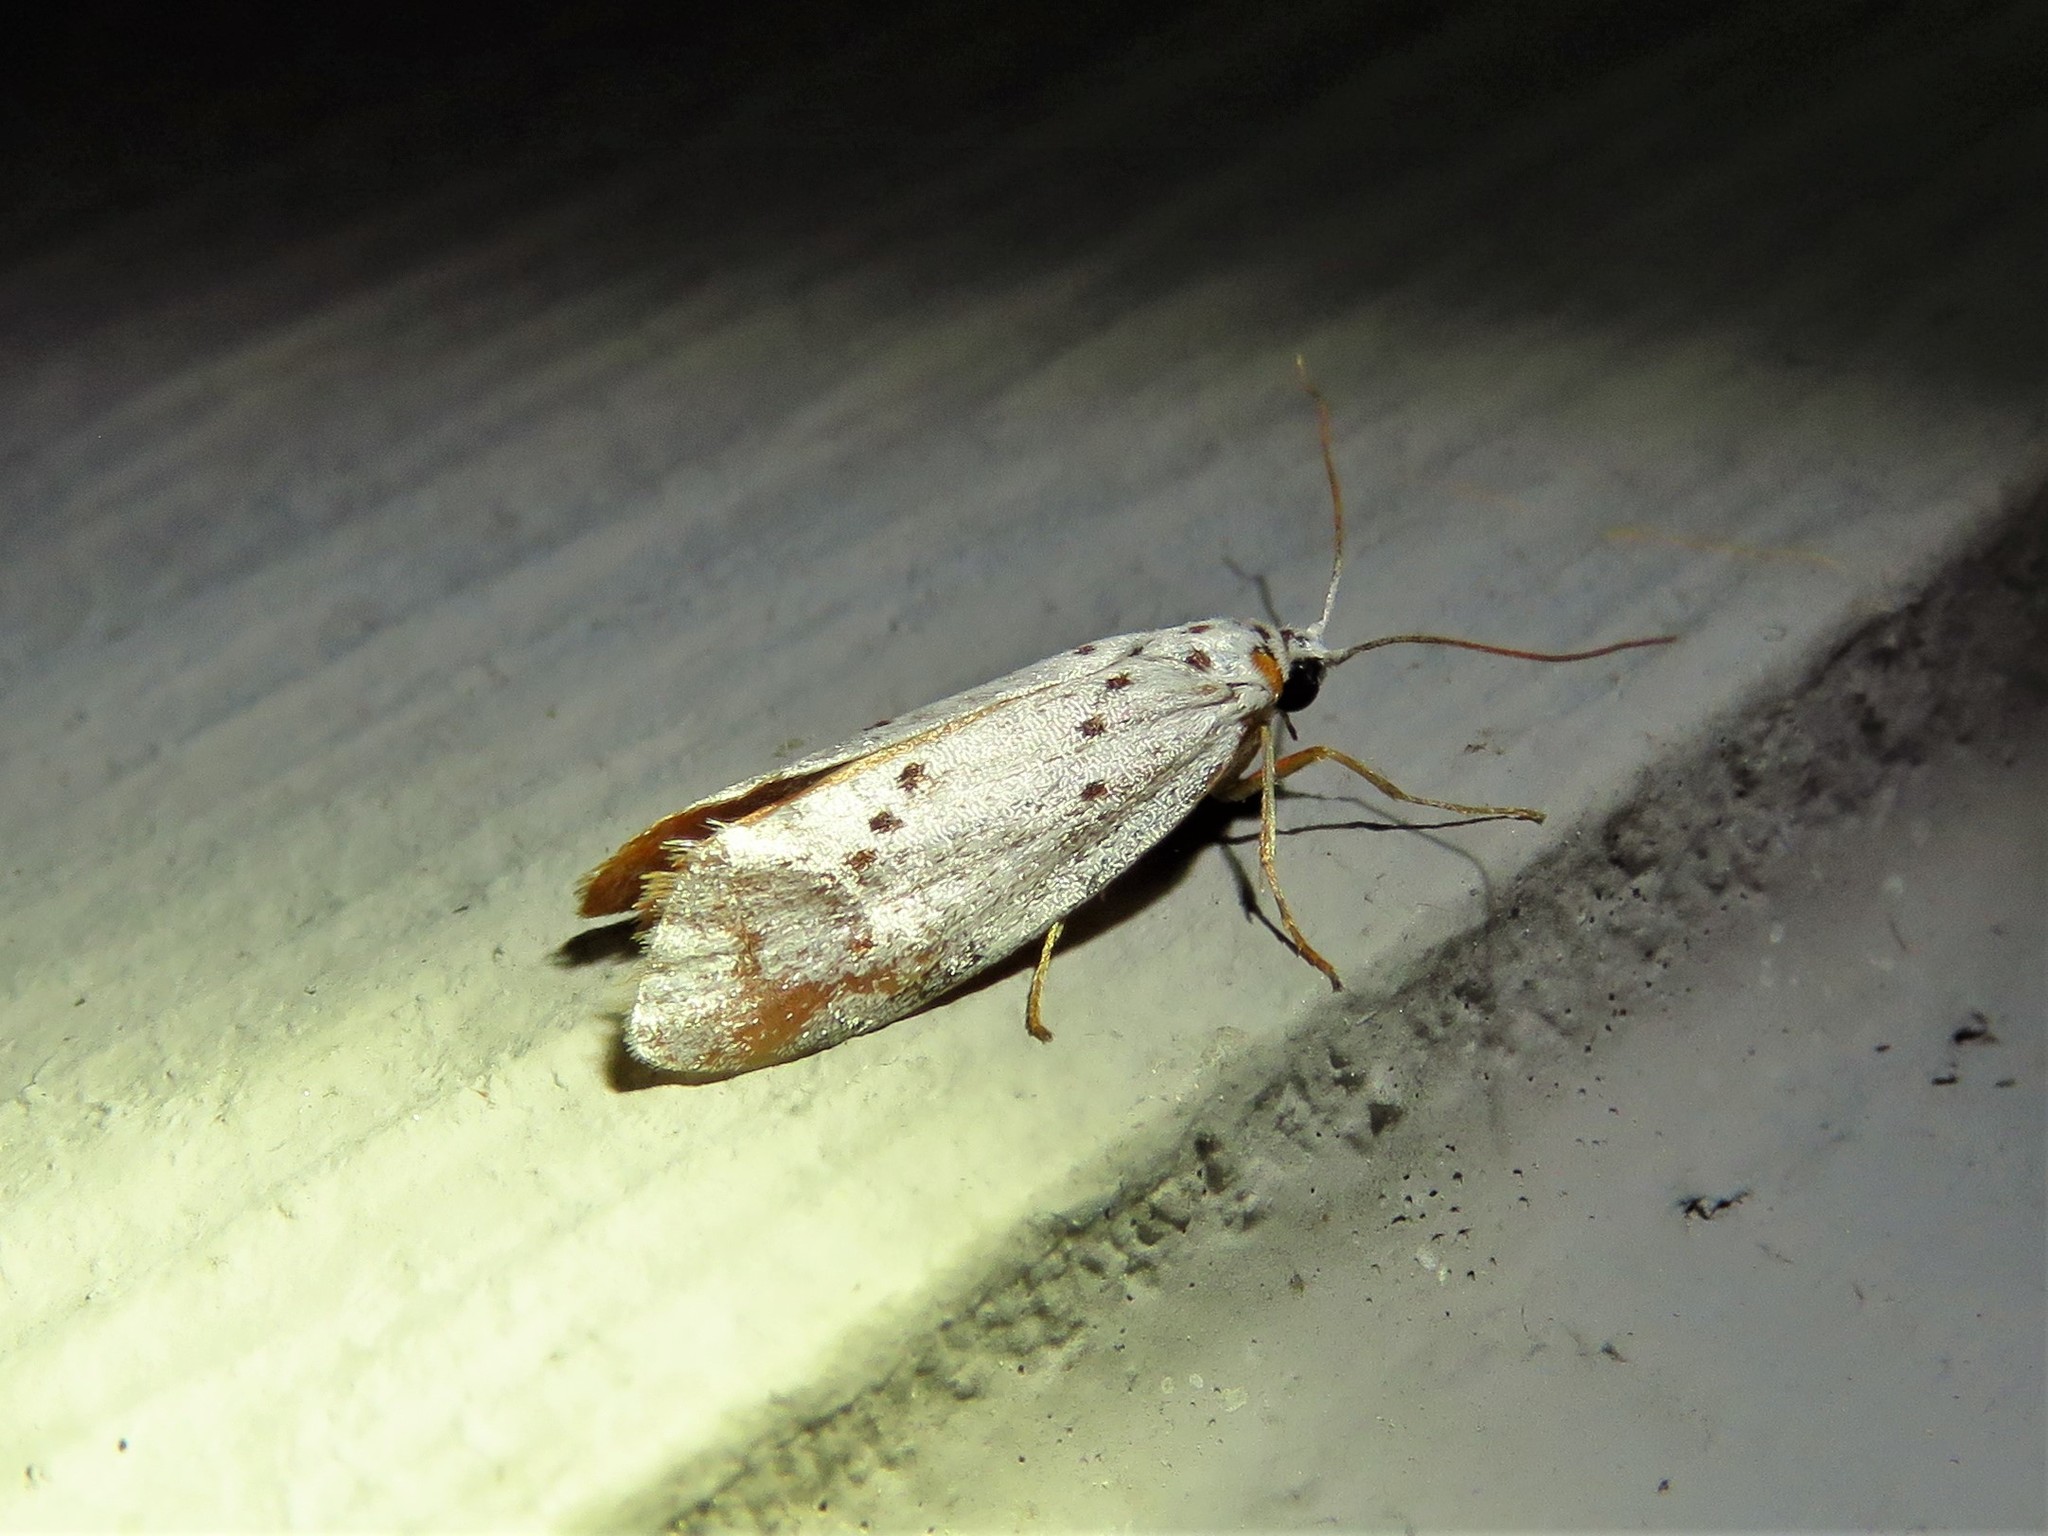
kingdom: Animalia
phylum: Arthropoda
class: Insecta
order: Lepidoptera
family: Lacturidae
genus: Lactura
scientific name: Lactura
